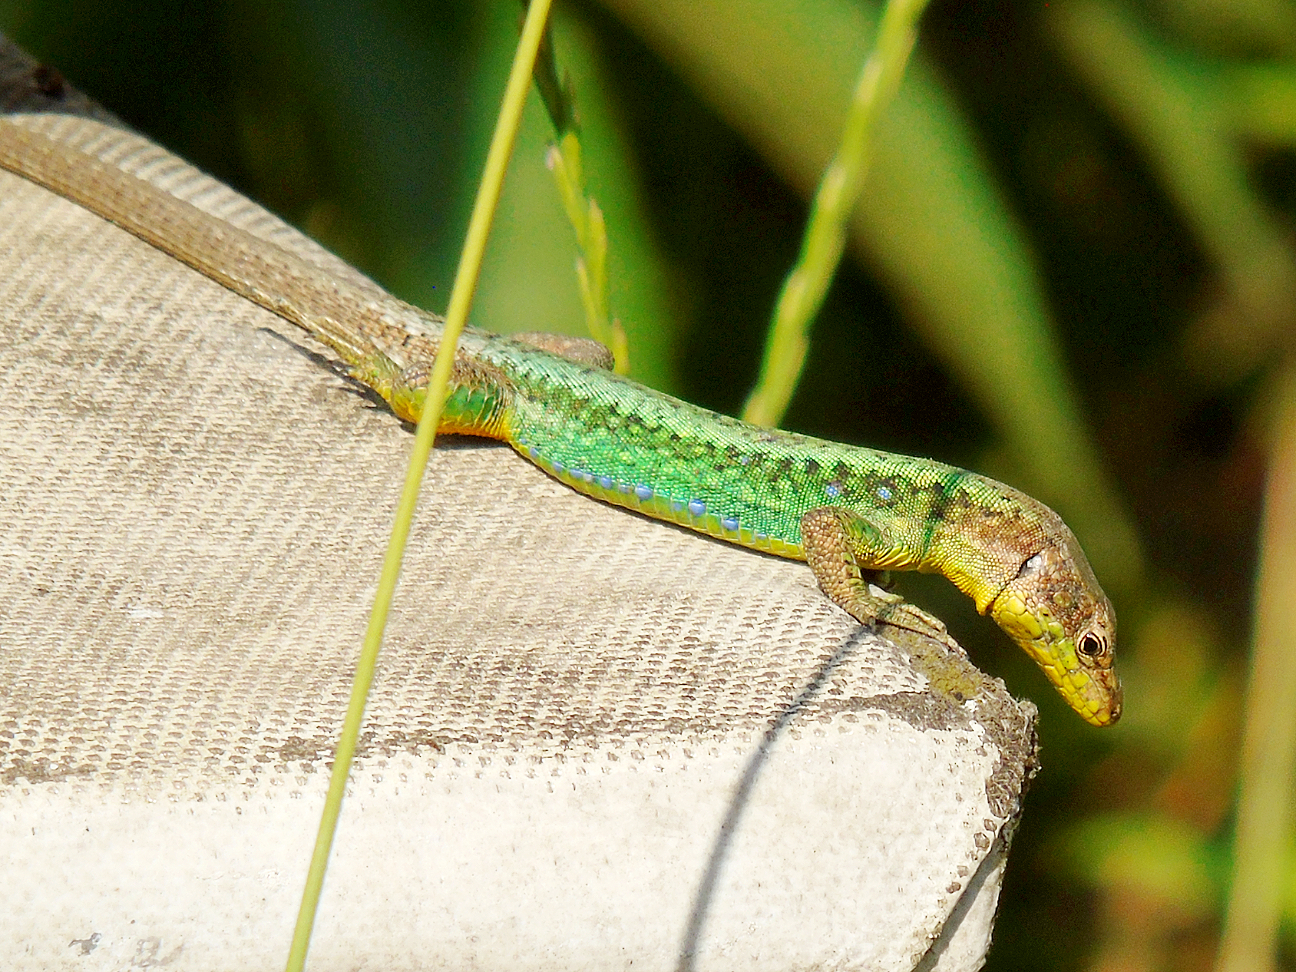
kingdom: Animalia
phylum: Chordata
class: Squamata
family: Lacertidae
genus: Darevskia
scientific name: Darevskia rudis
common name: Spiny-tailed lizard
